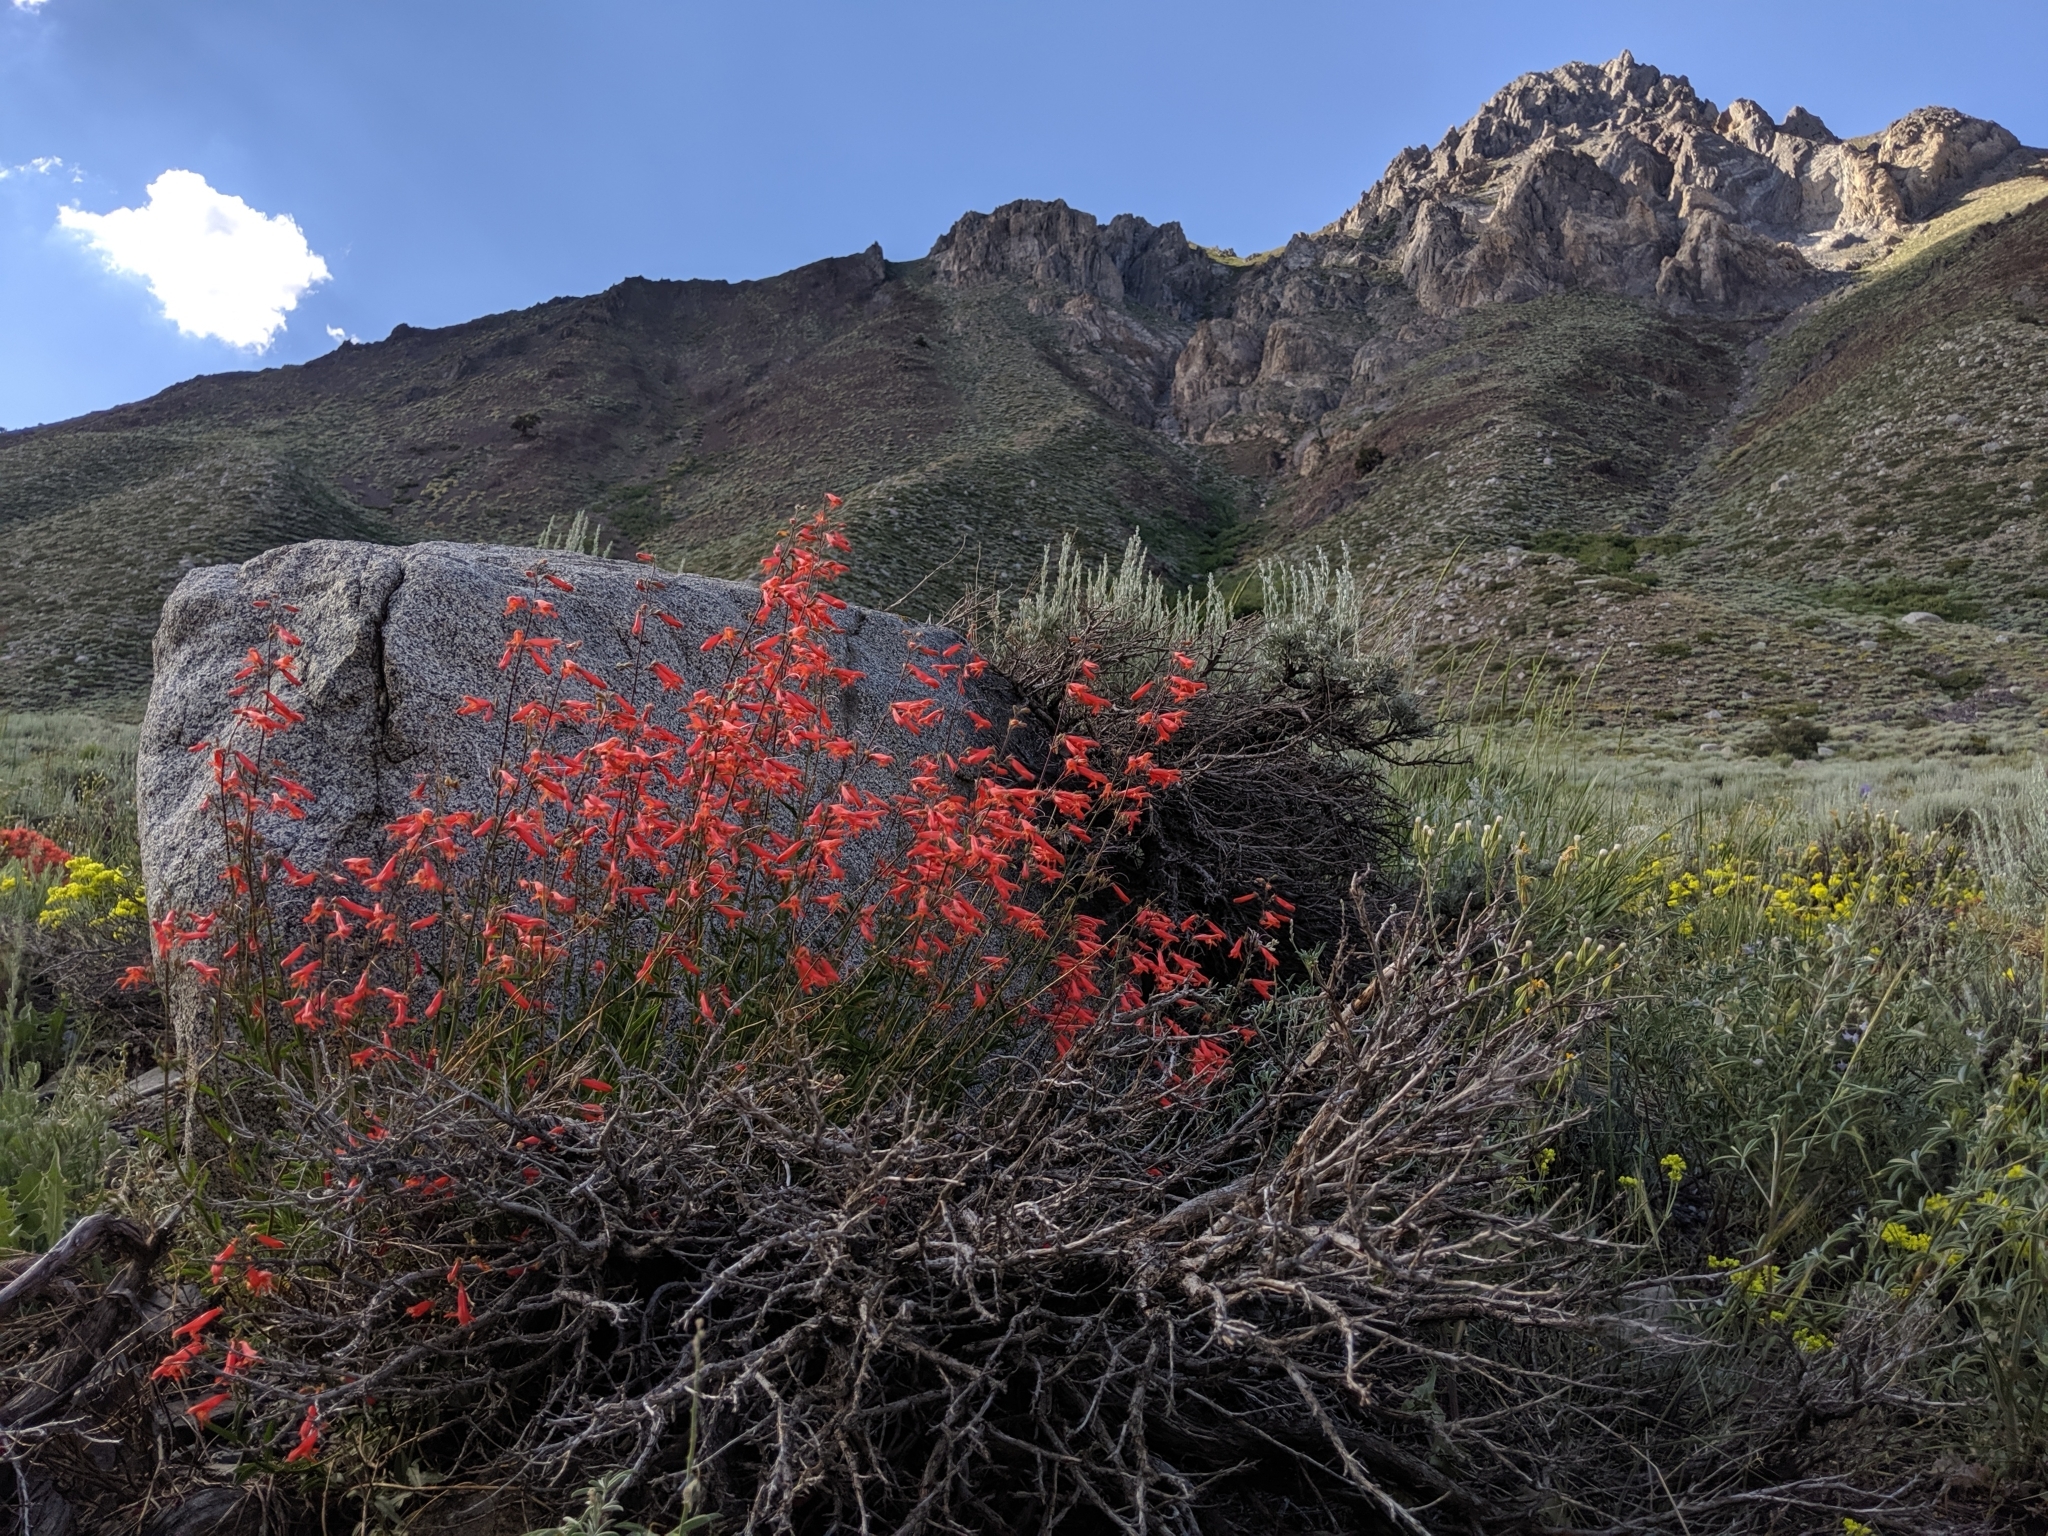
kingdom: Plantae
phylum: Tracheophyta
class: Magnoliopsida
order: Lamiales
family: Plantaginaceae
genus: Penstemon
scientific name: Penstemon rostriflorus
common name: Bridges's penstemon
